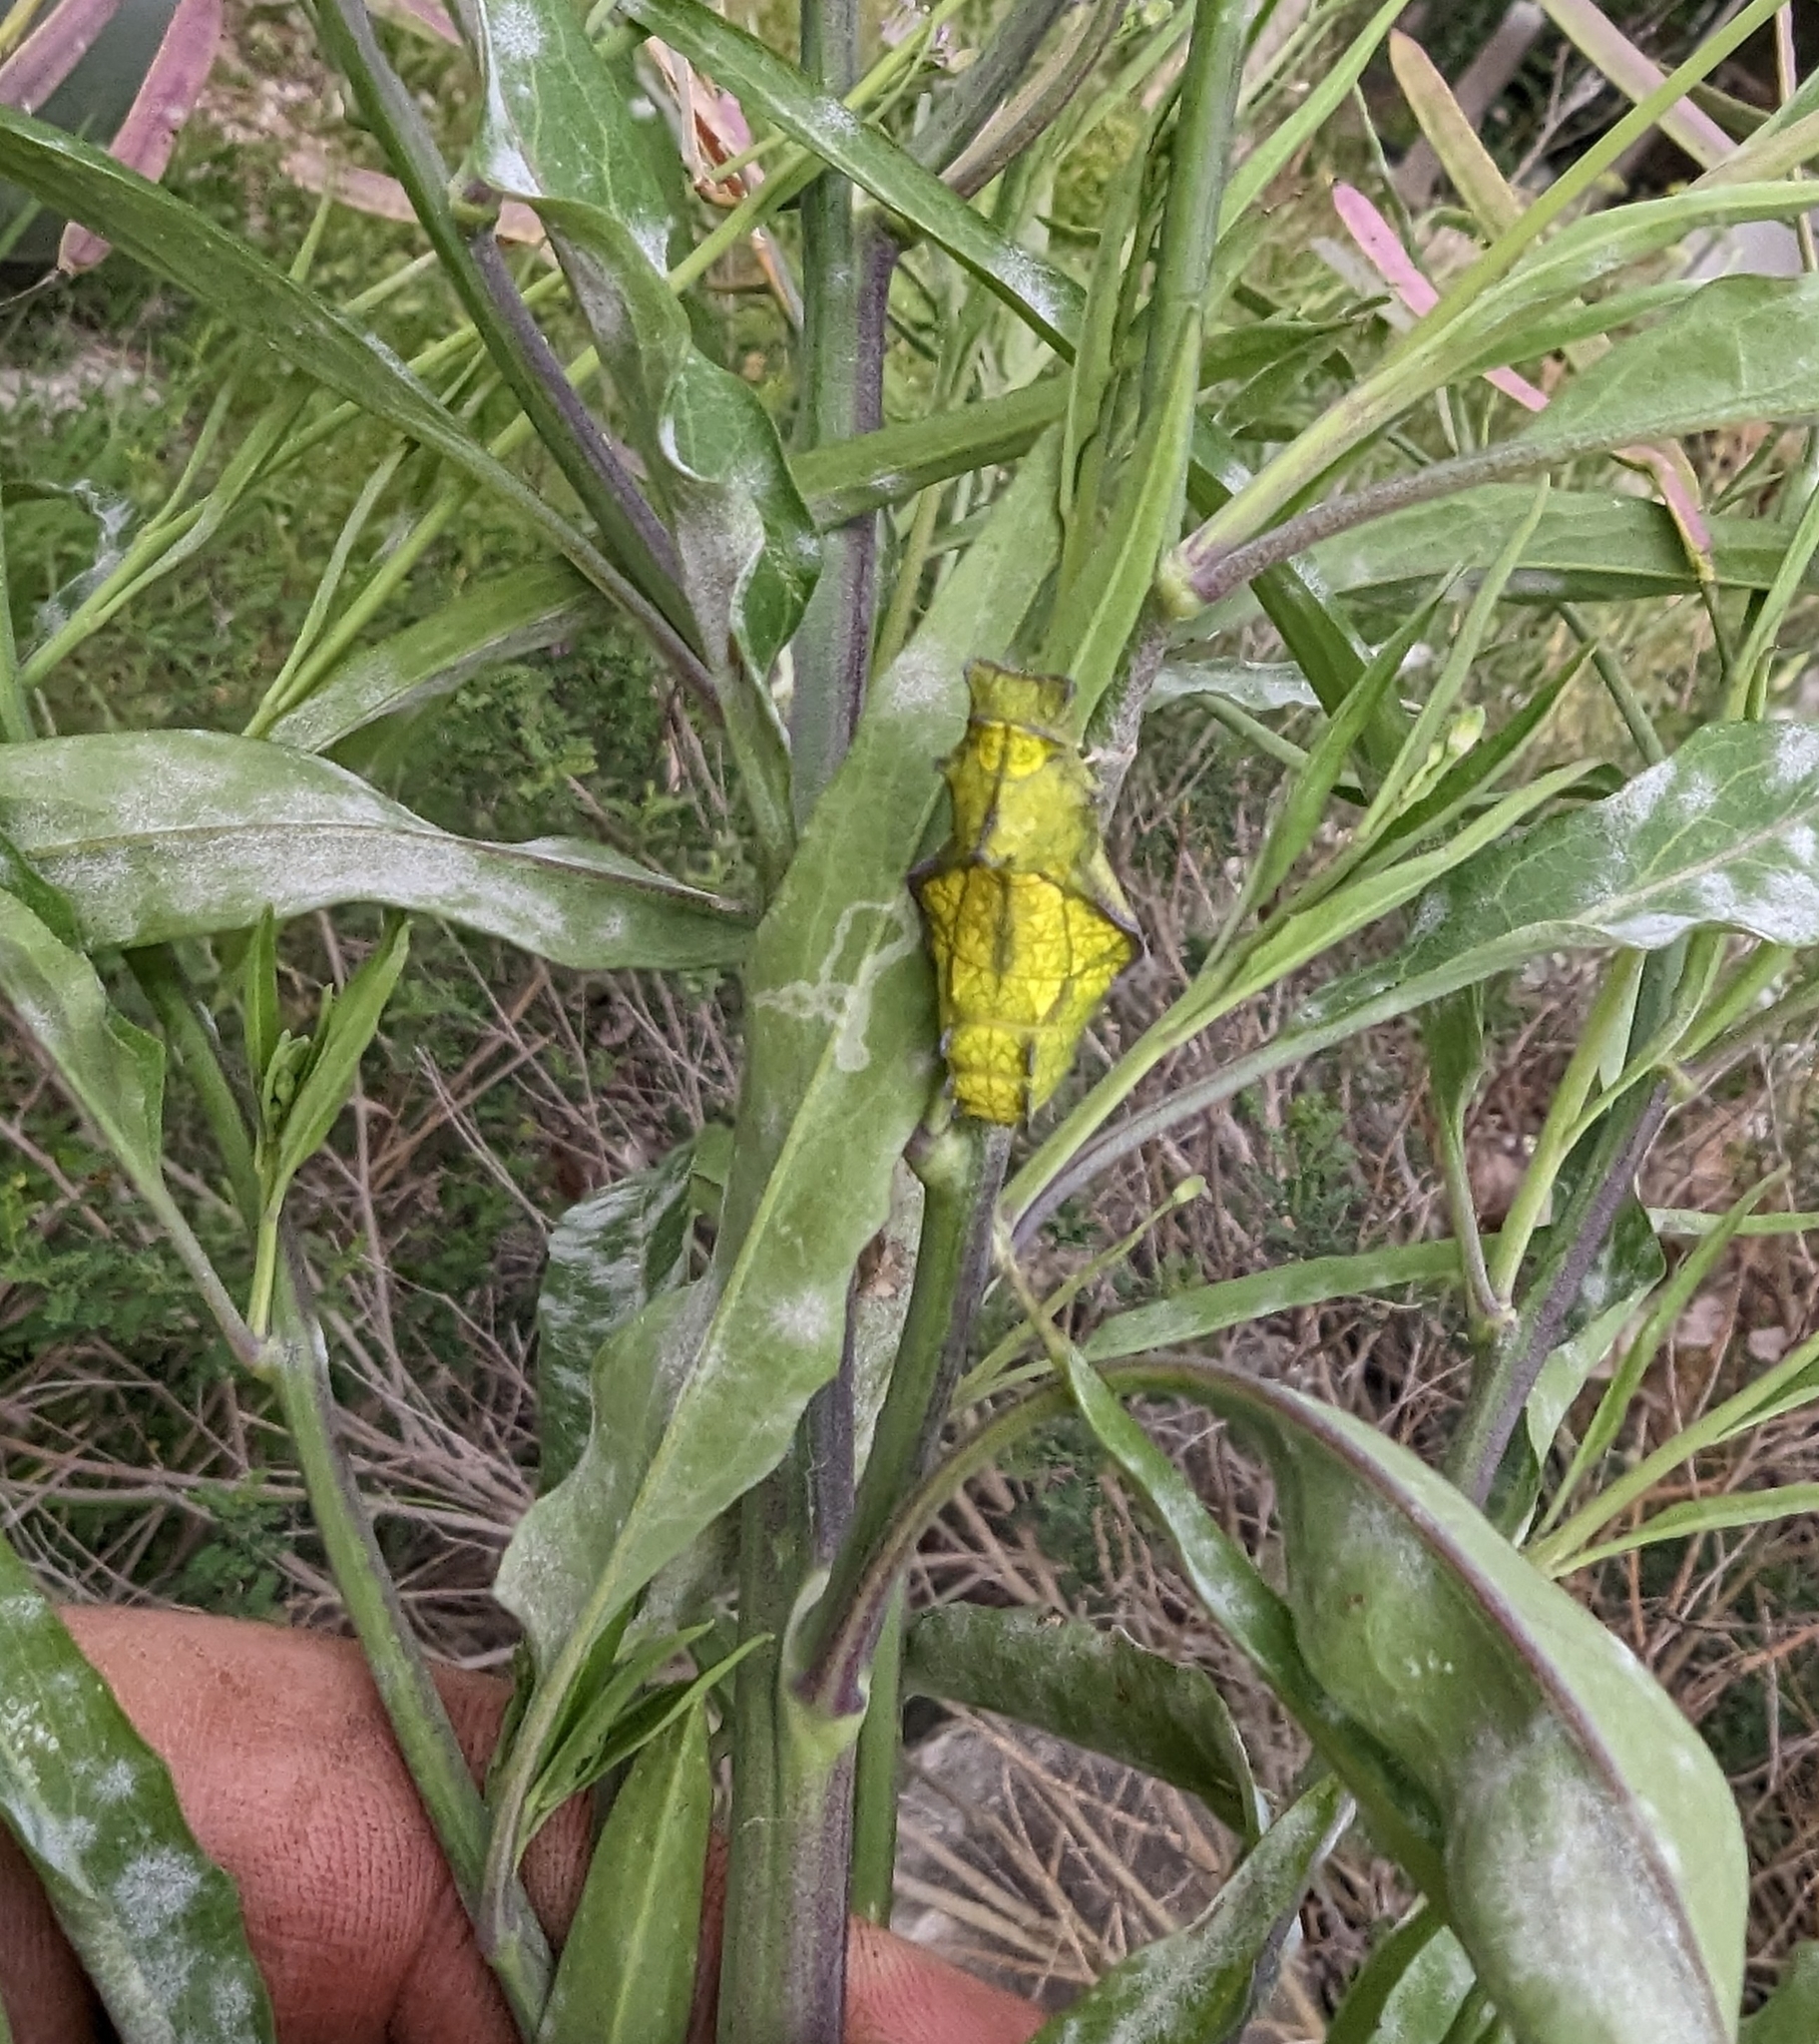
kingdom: Animalia
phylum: Arthropoda
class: Insecta
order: Lepidoptera
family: Papilionidae
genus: Battus
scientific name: Battus philenor
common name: Pipevine swallowtail
